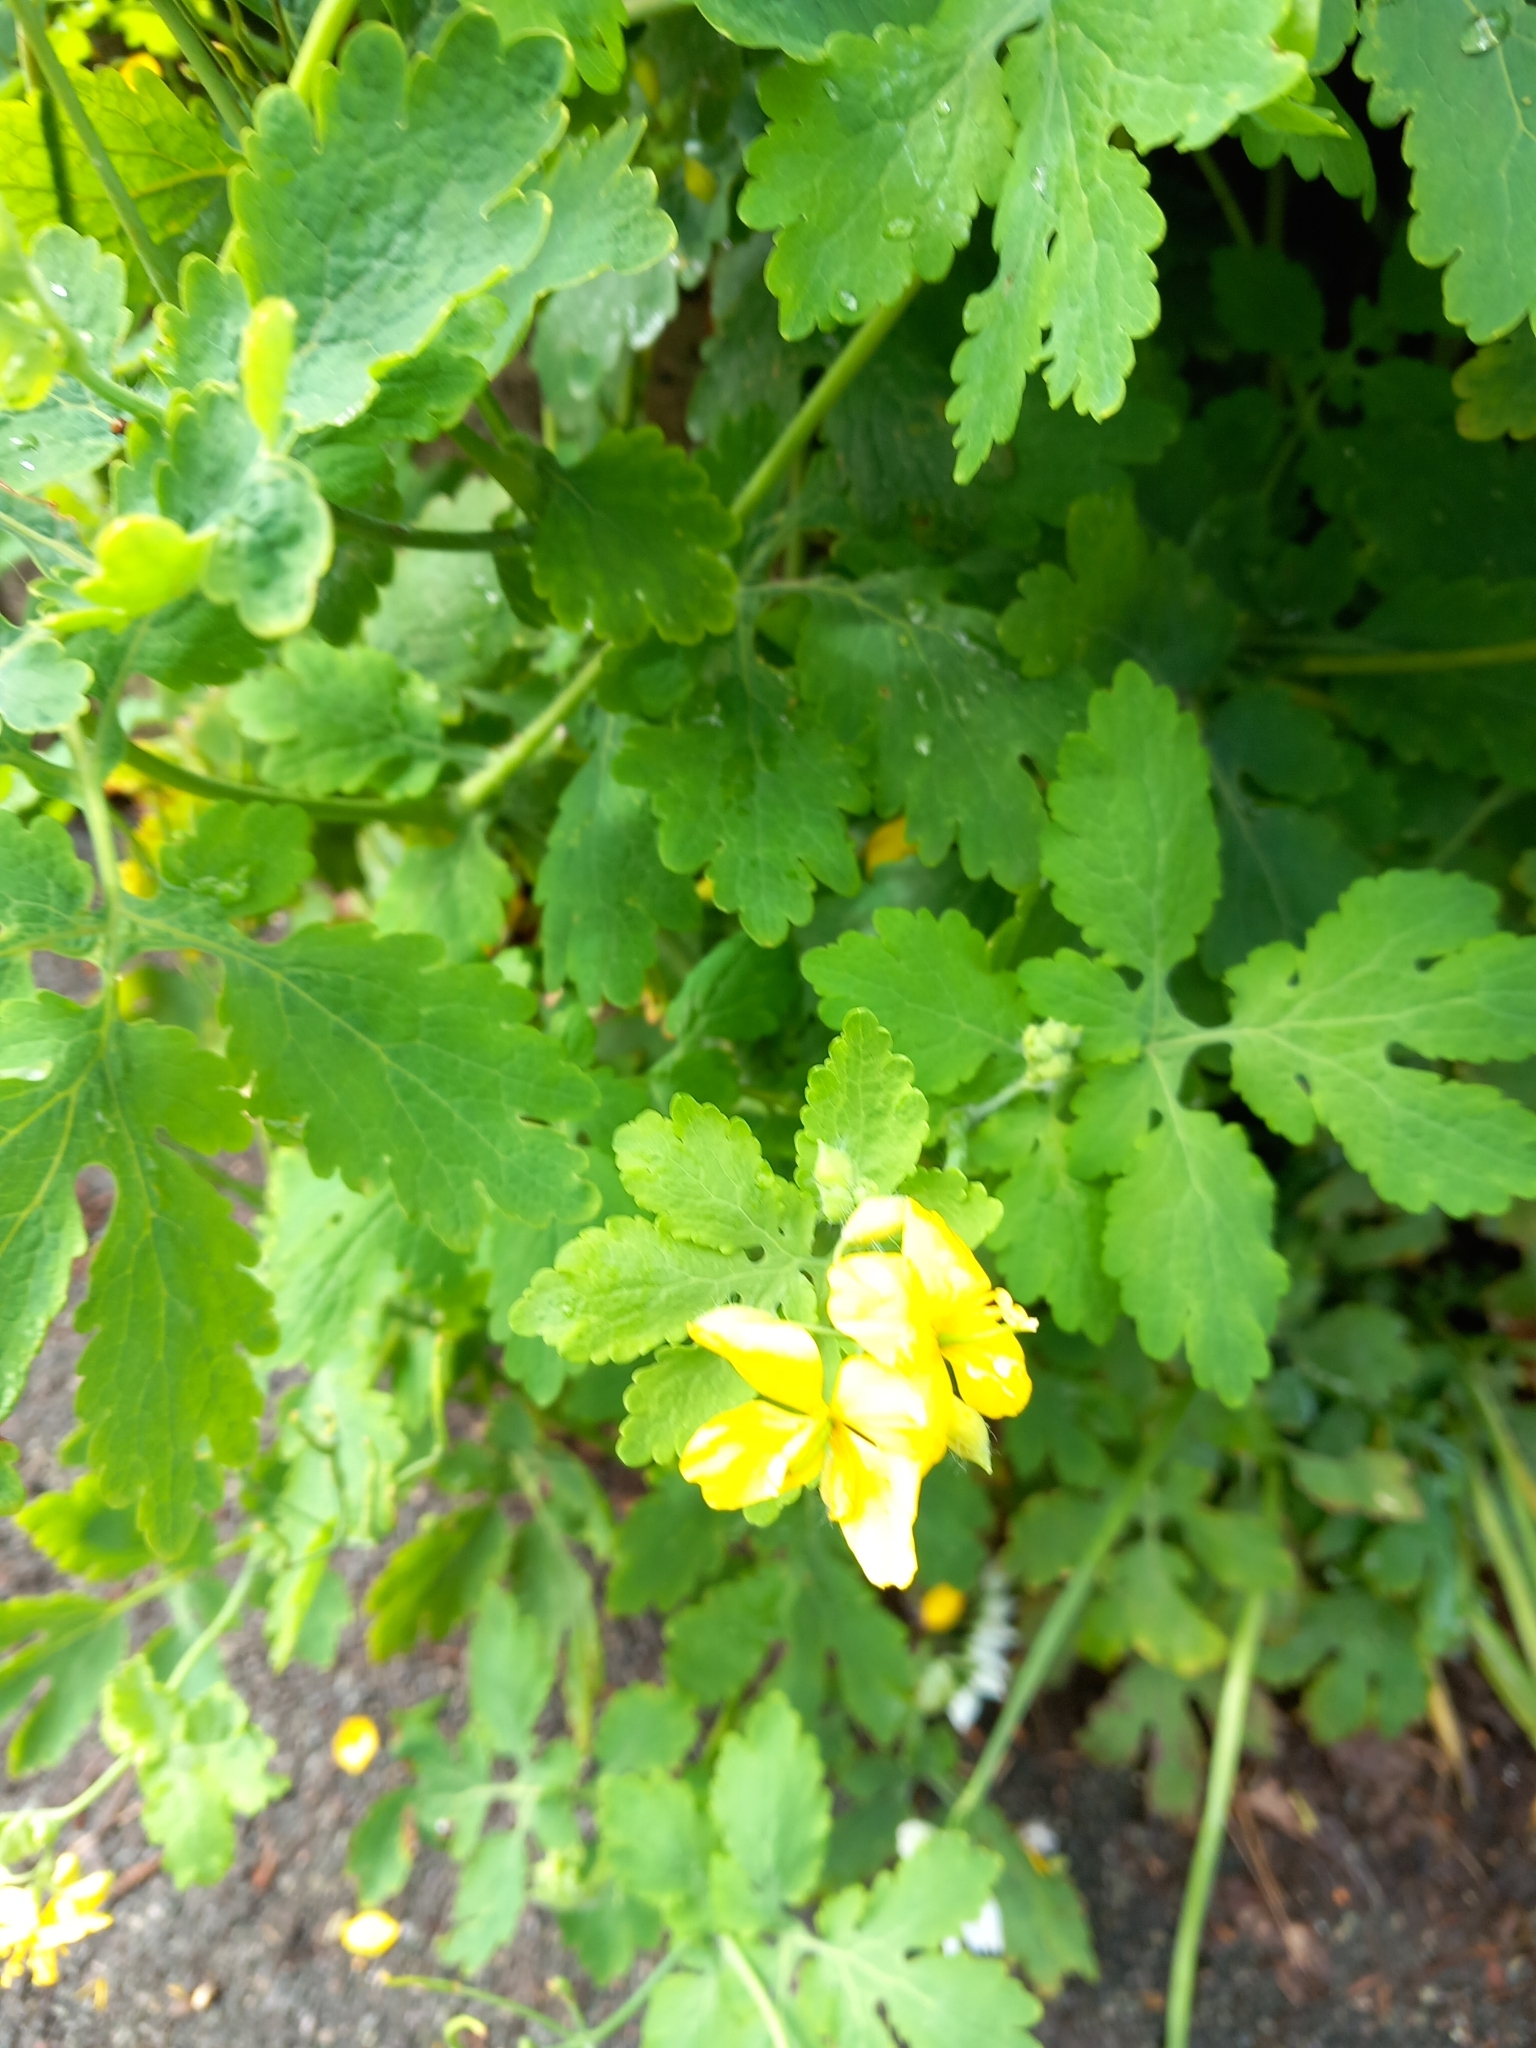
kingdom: Plantae
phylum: Tracheophyta
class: Magnoliopsida
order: Ranunculales
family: Papaveraceae
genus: Chelidonium
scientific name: Chelidonium majus
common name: Greater celandine
